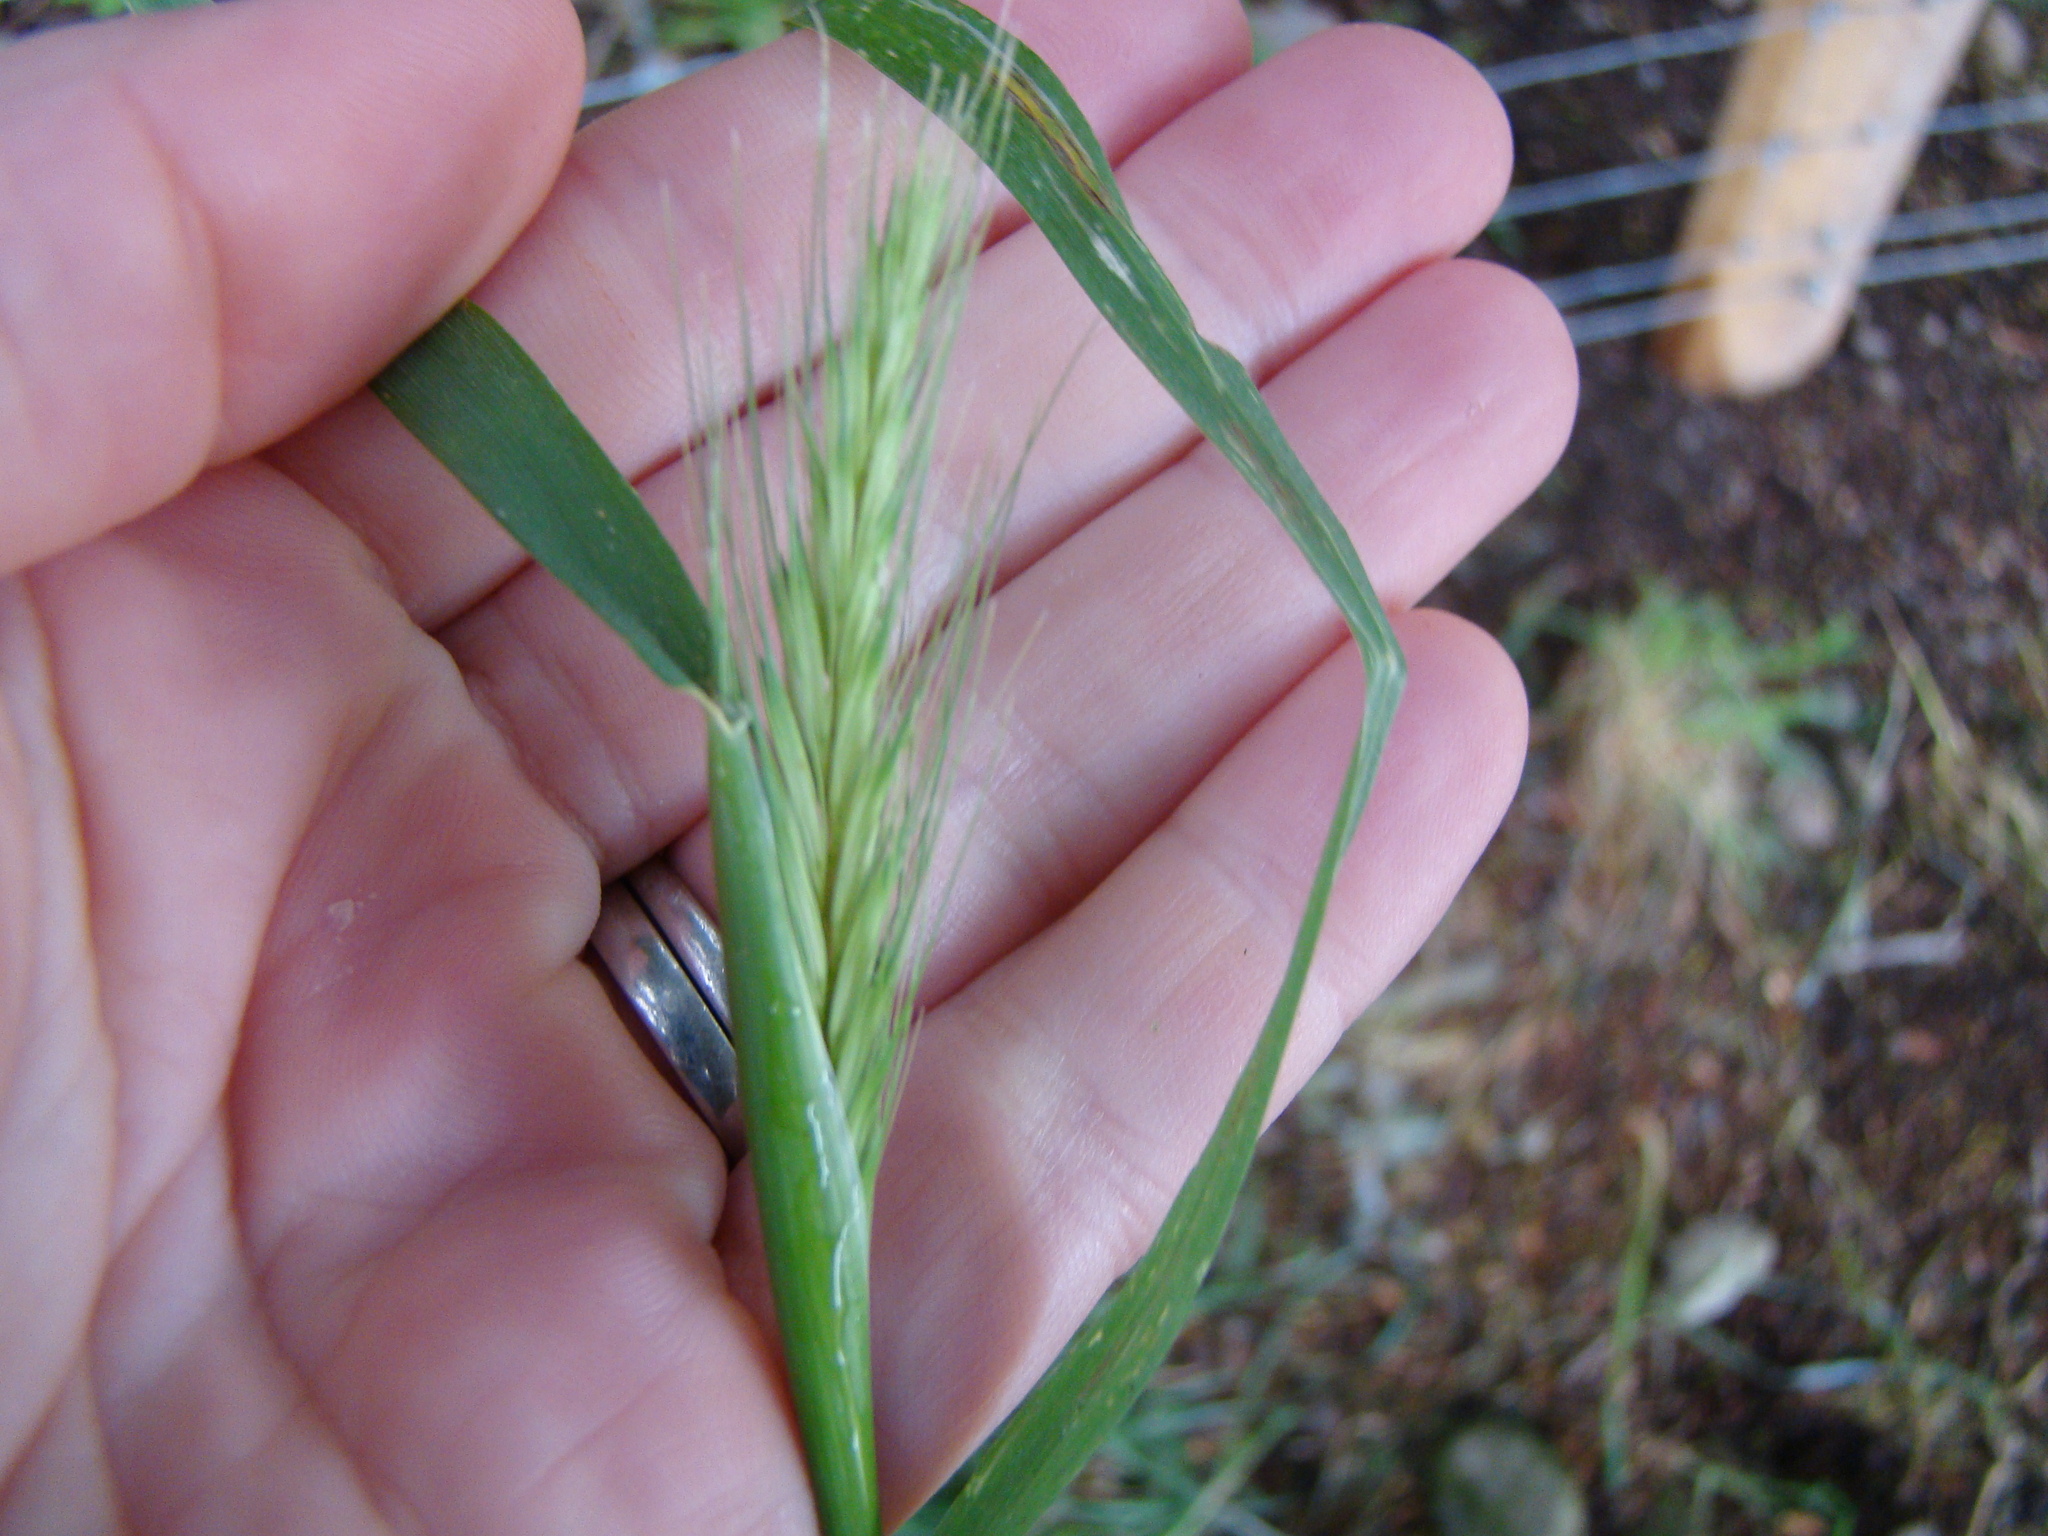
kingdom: Plantae
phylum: Tracheophyta
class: Liliopsida
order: Poales
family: Poaceae
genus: Hordeum
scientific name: Hordeum murinum
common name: Wall barley
